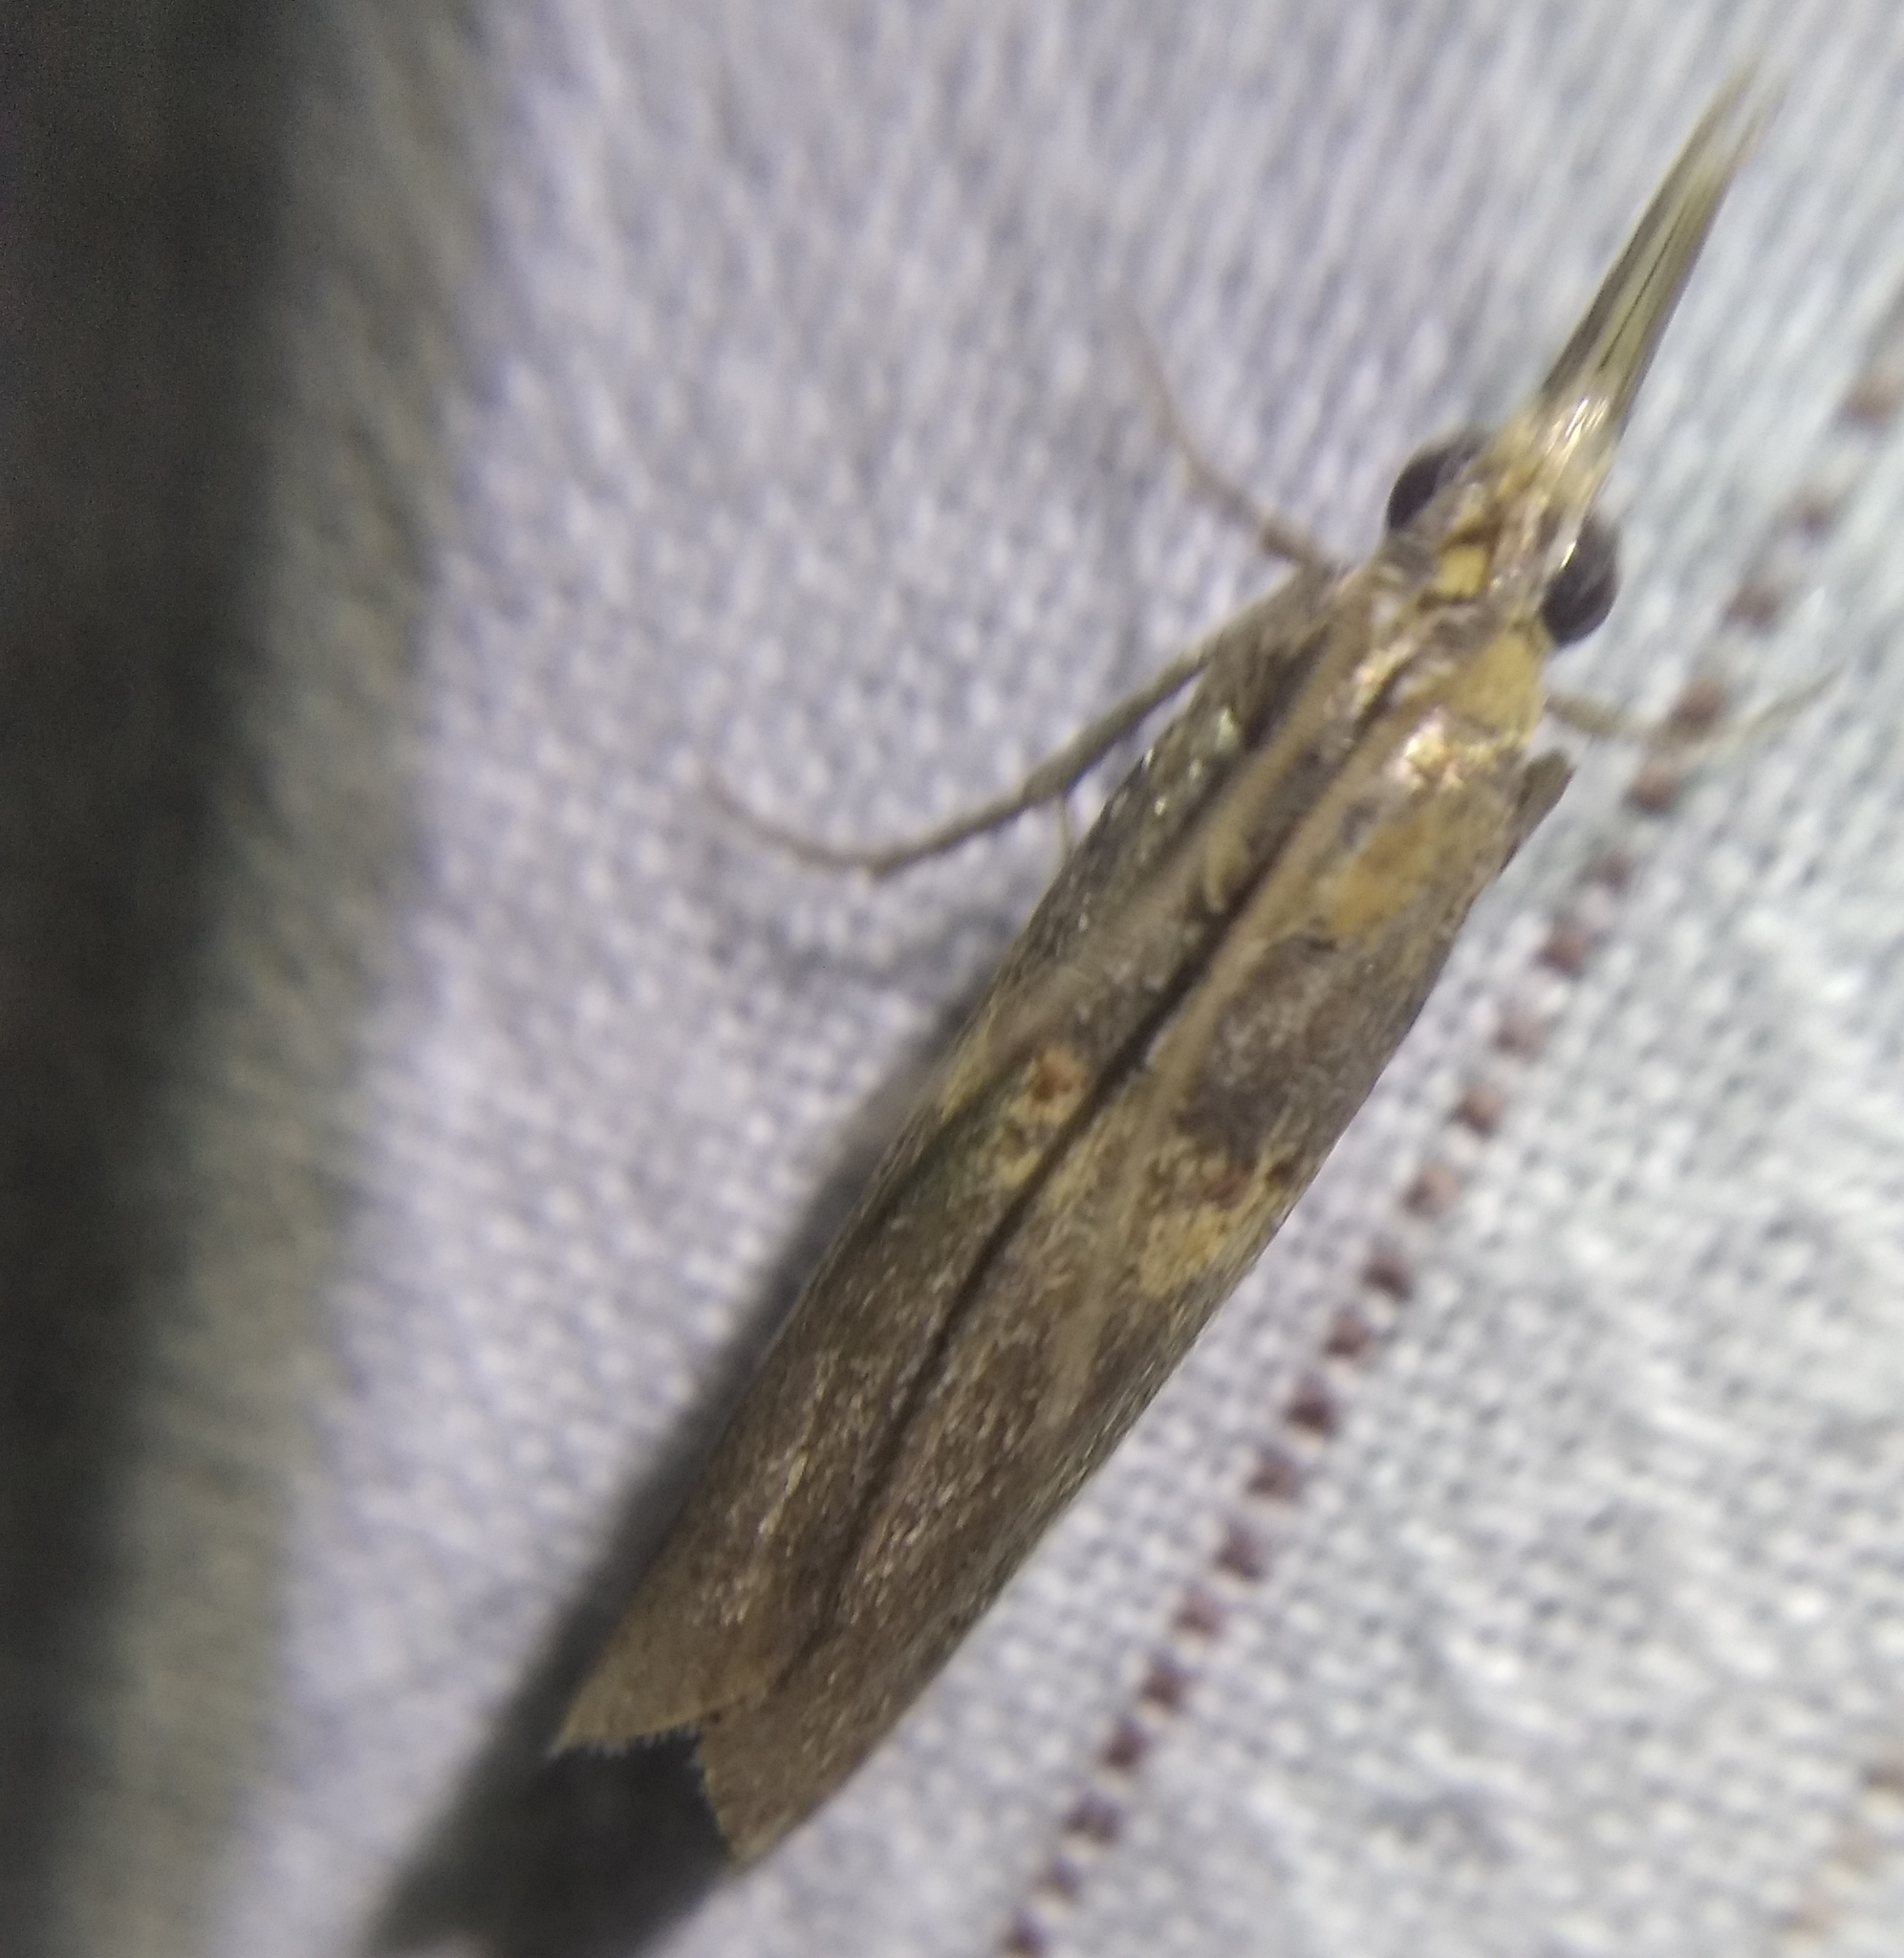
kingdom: Animalia
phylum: Arthropoda
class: Insecta
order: Lepidoptera
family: Pyralidae
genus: Etiella
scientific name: Etiella zinckenella
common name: Gold-banded etiella moth
